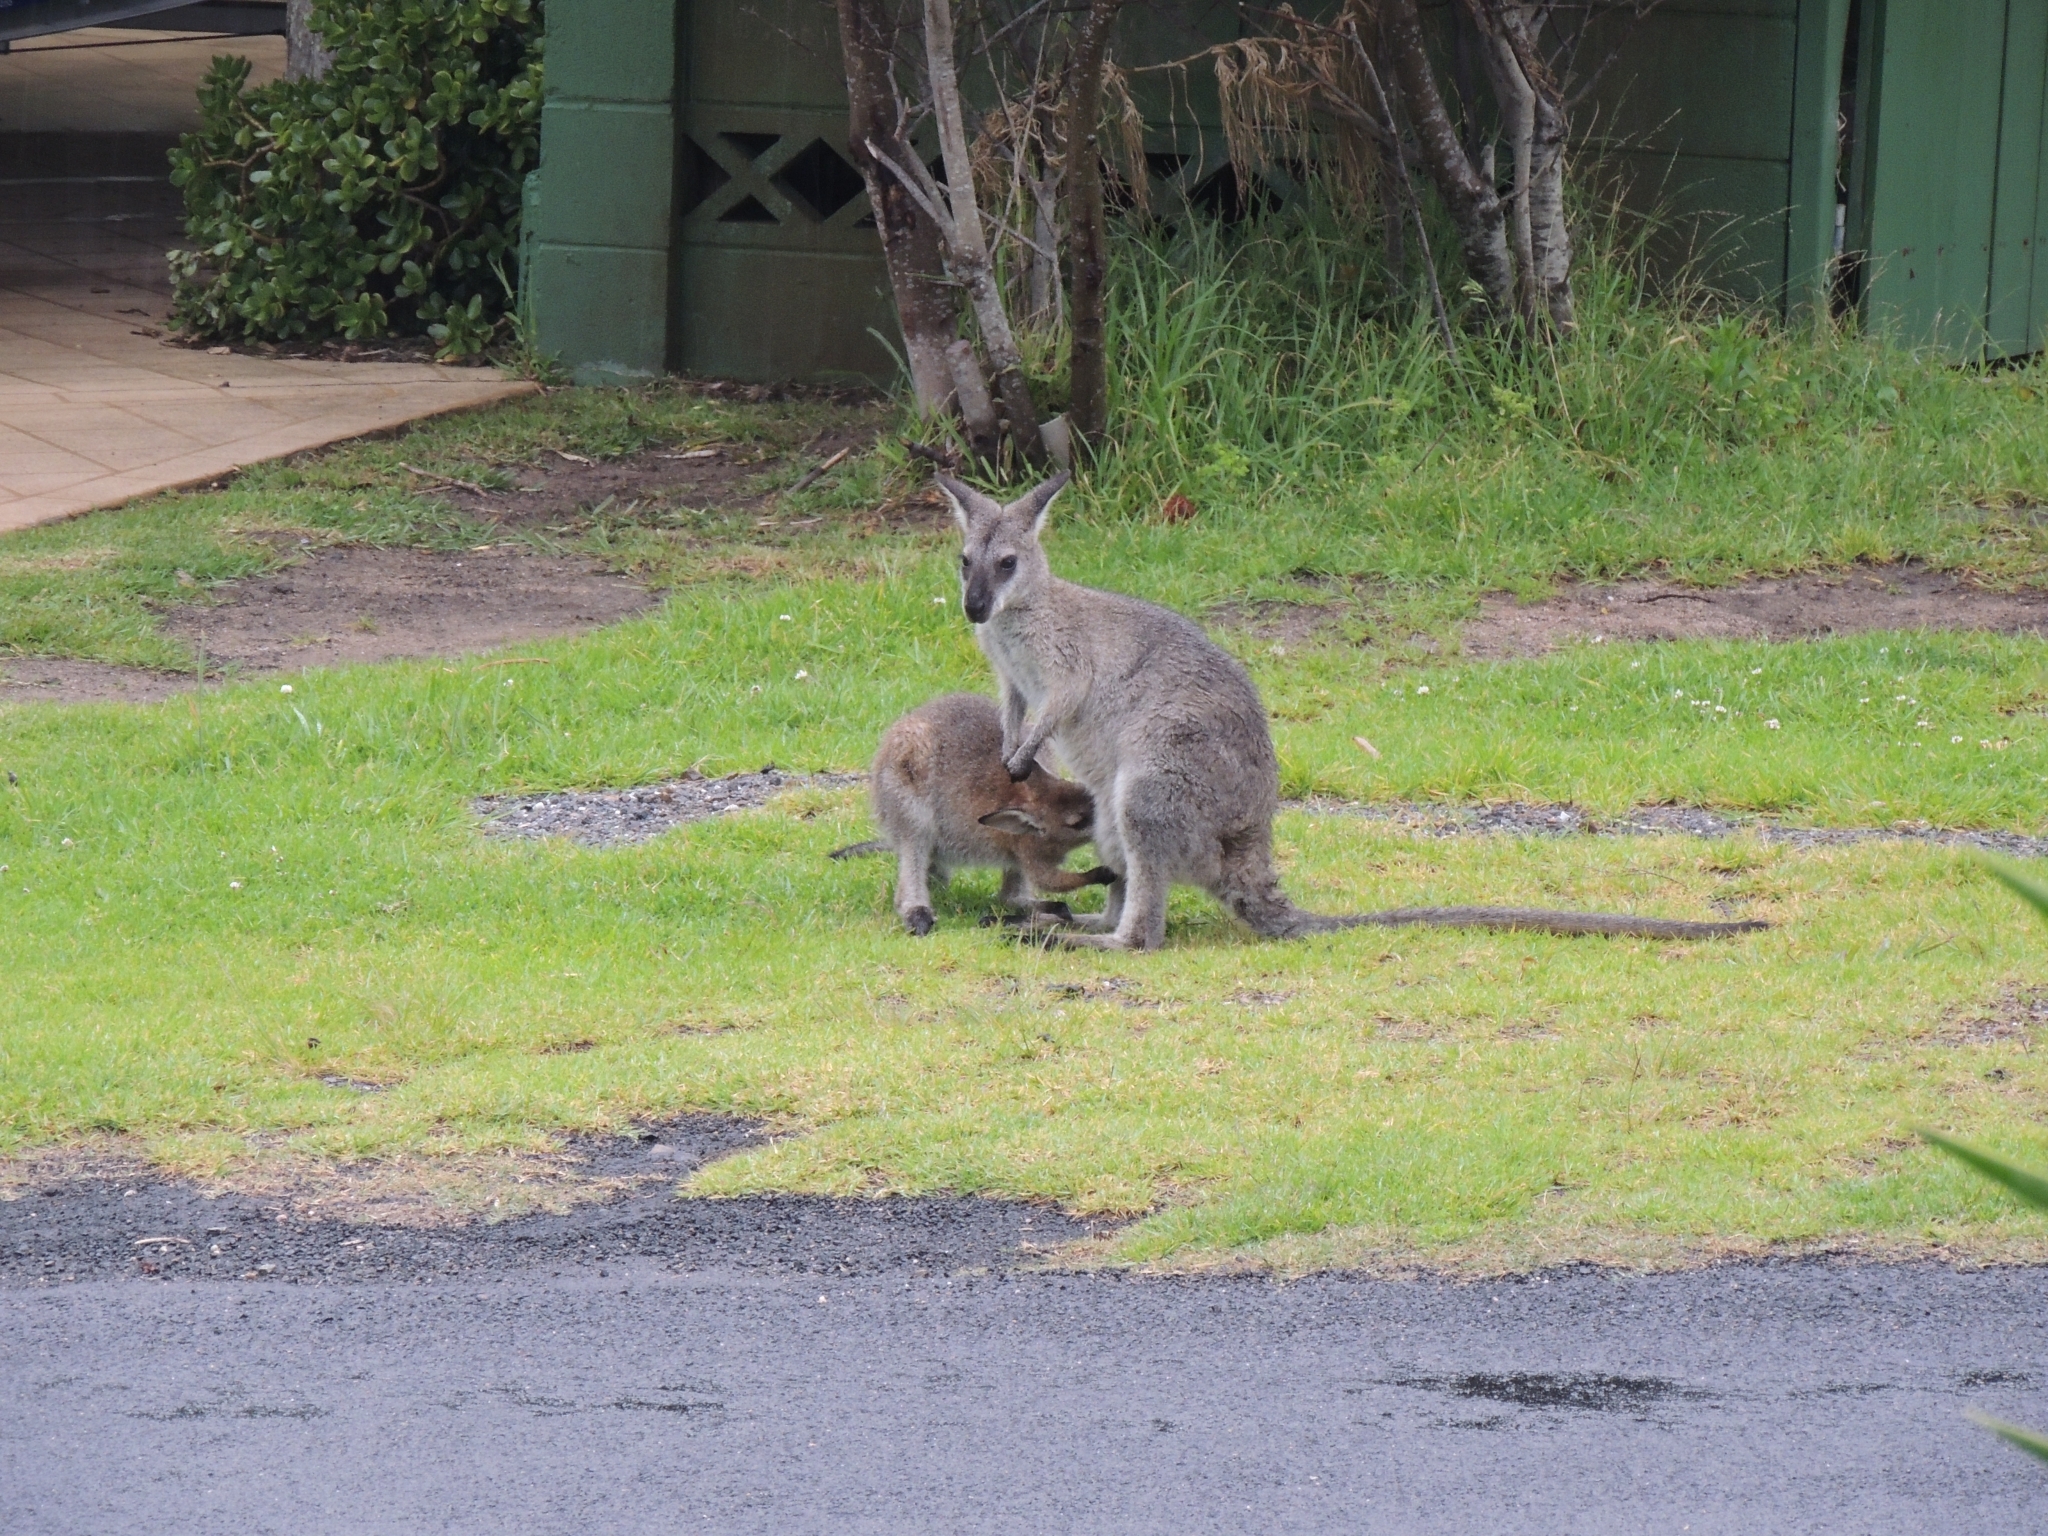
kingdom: Animalia
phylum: Chordata
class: Mammalia
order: Diprotodontia
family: Macropodidae
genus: Notamacropus
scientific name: Notamacropus rufogriseus
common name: Red-necked wallaby
